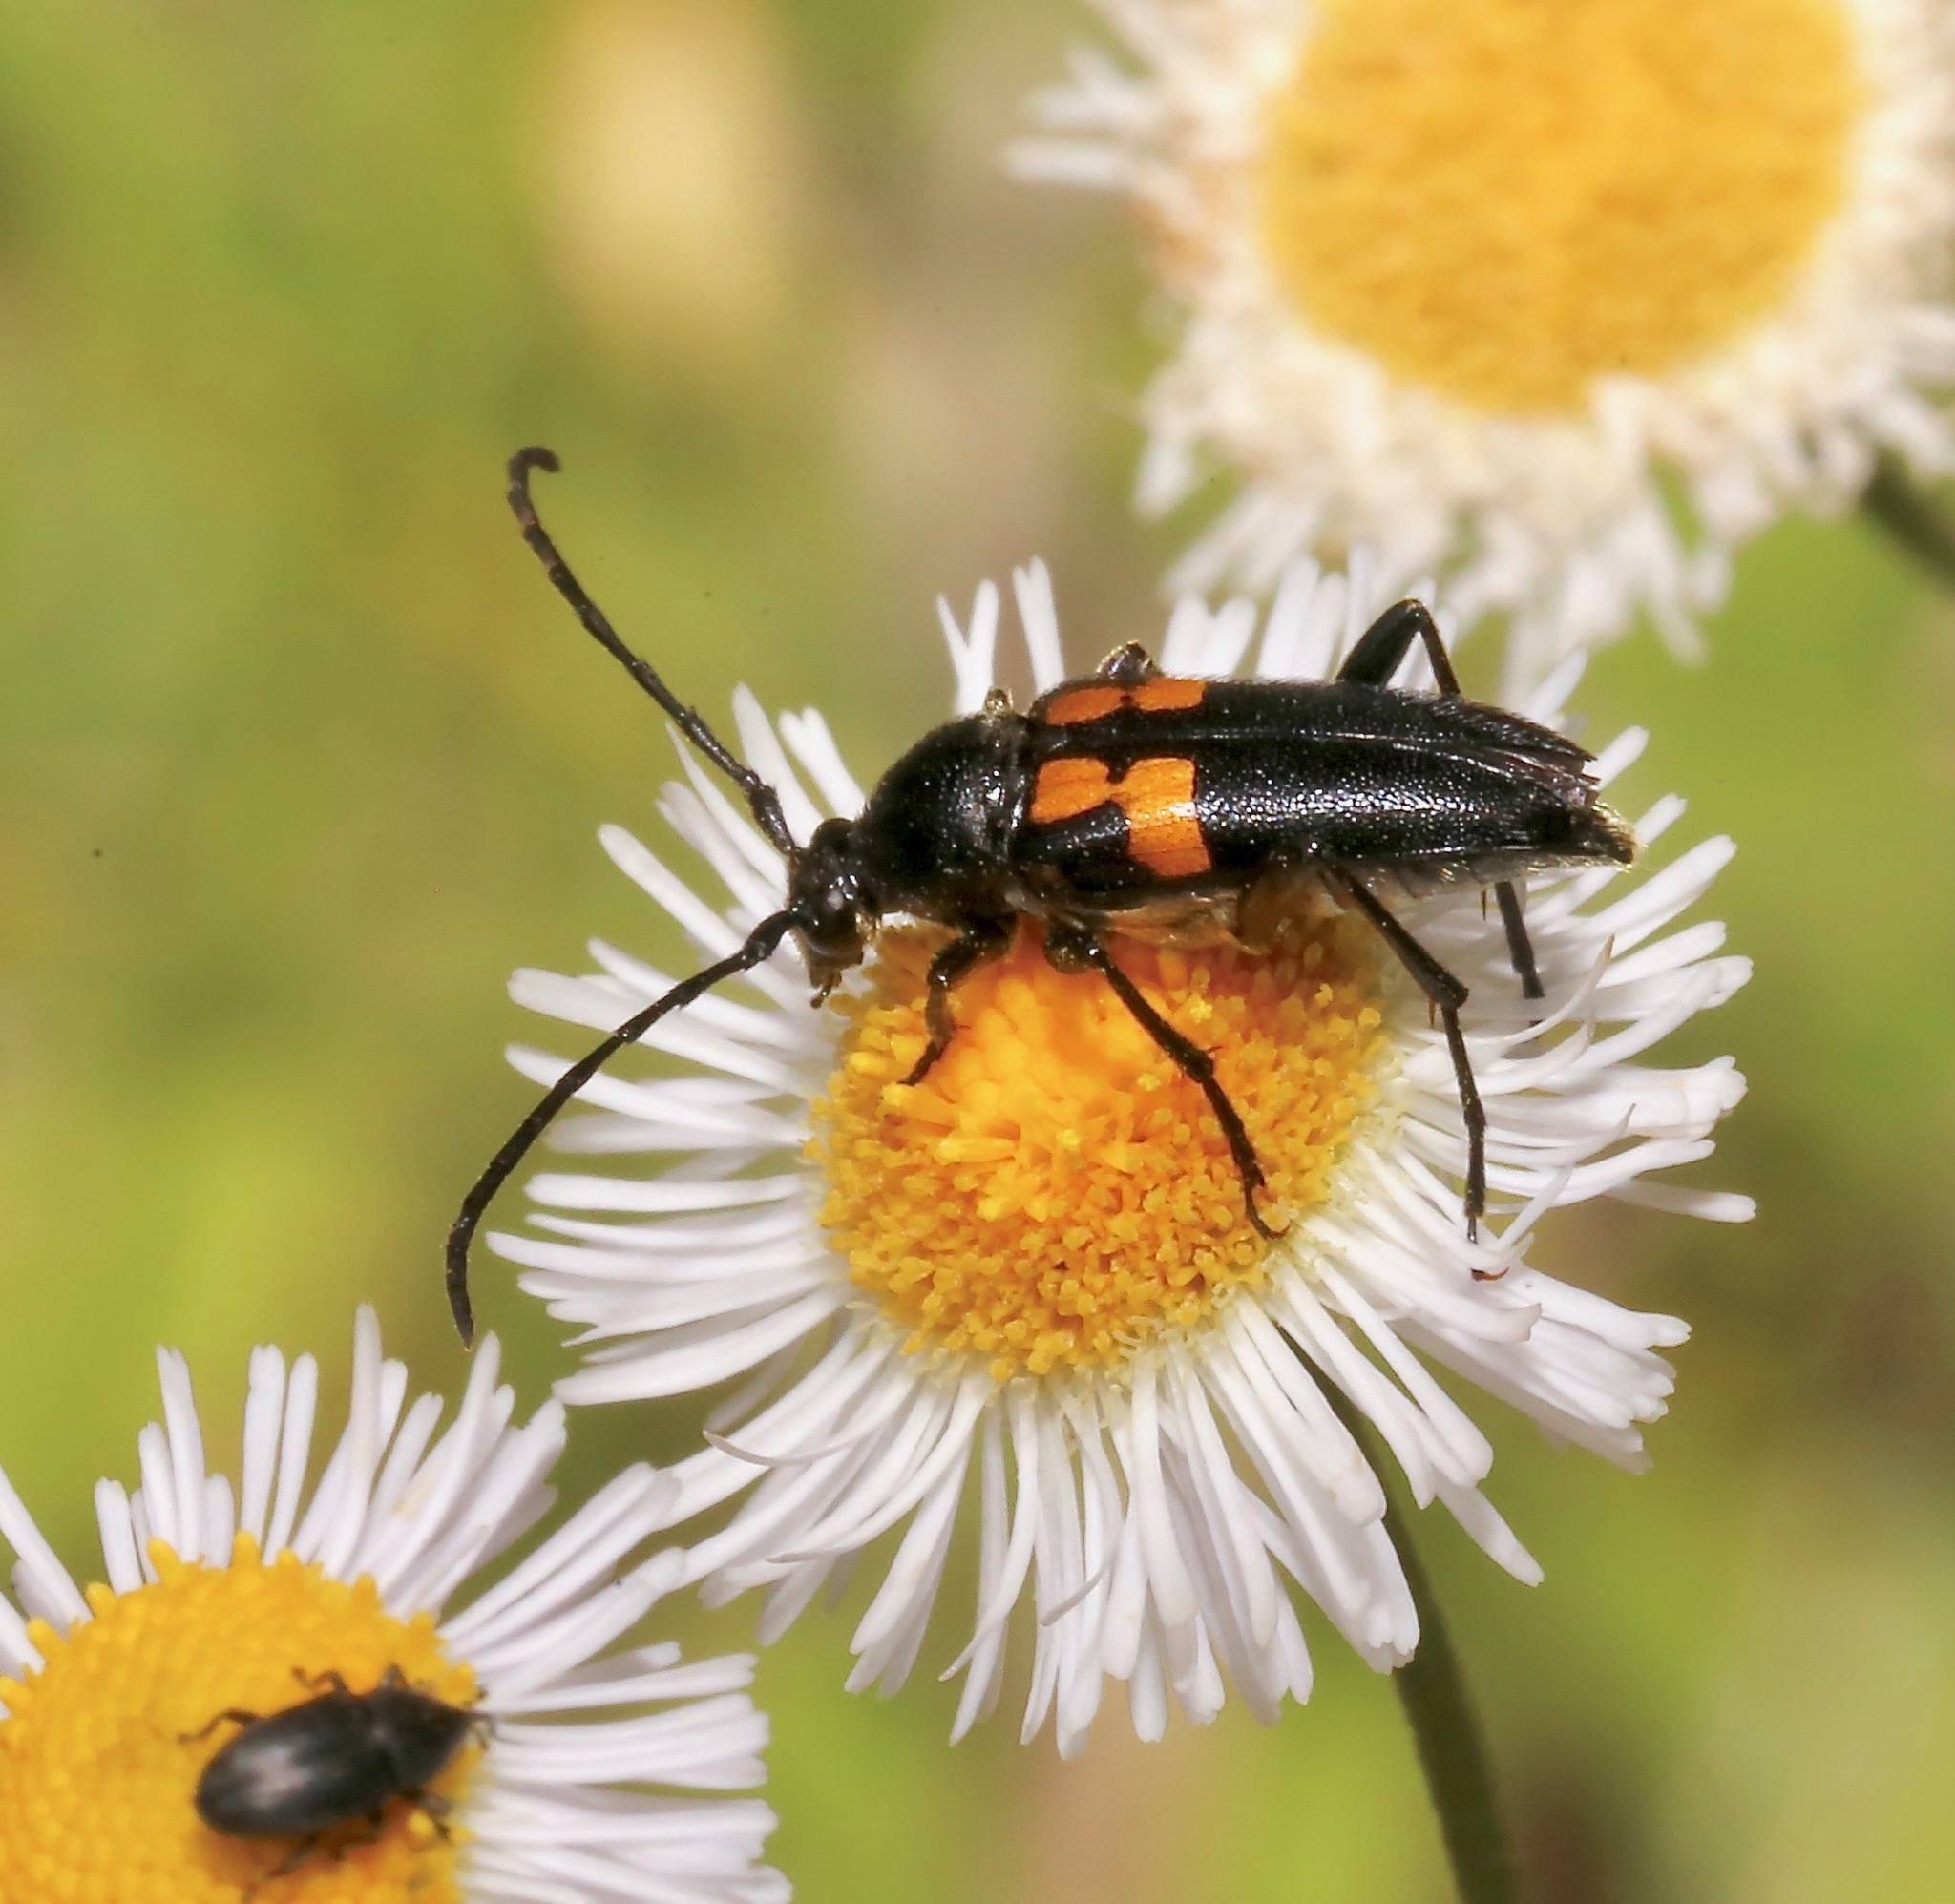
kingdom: Animalia
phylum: Arthropoda
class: Insecta
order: Coleoptera
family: Cerambycidae
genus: Typocerus
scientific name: Typocerus lunulatus
